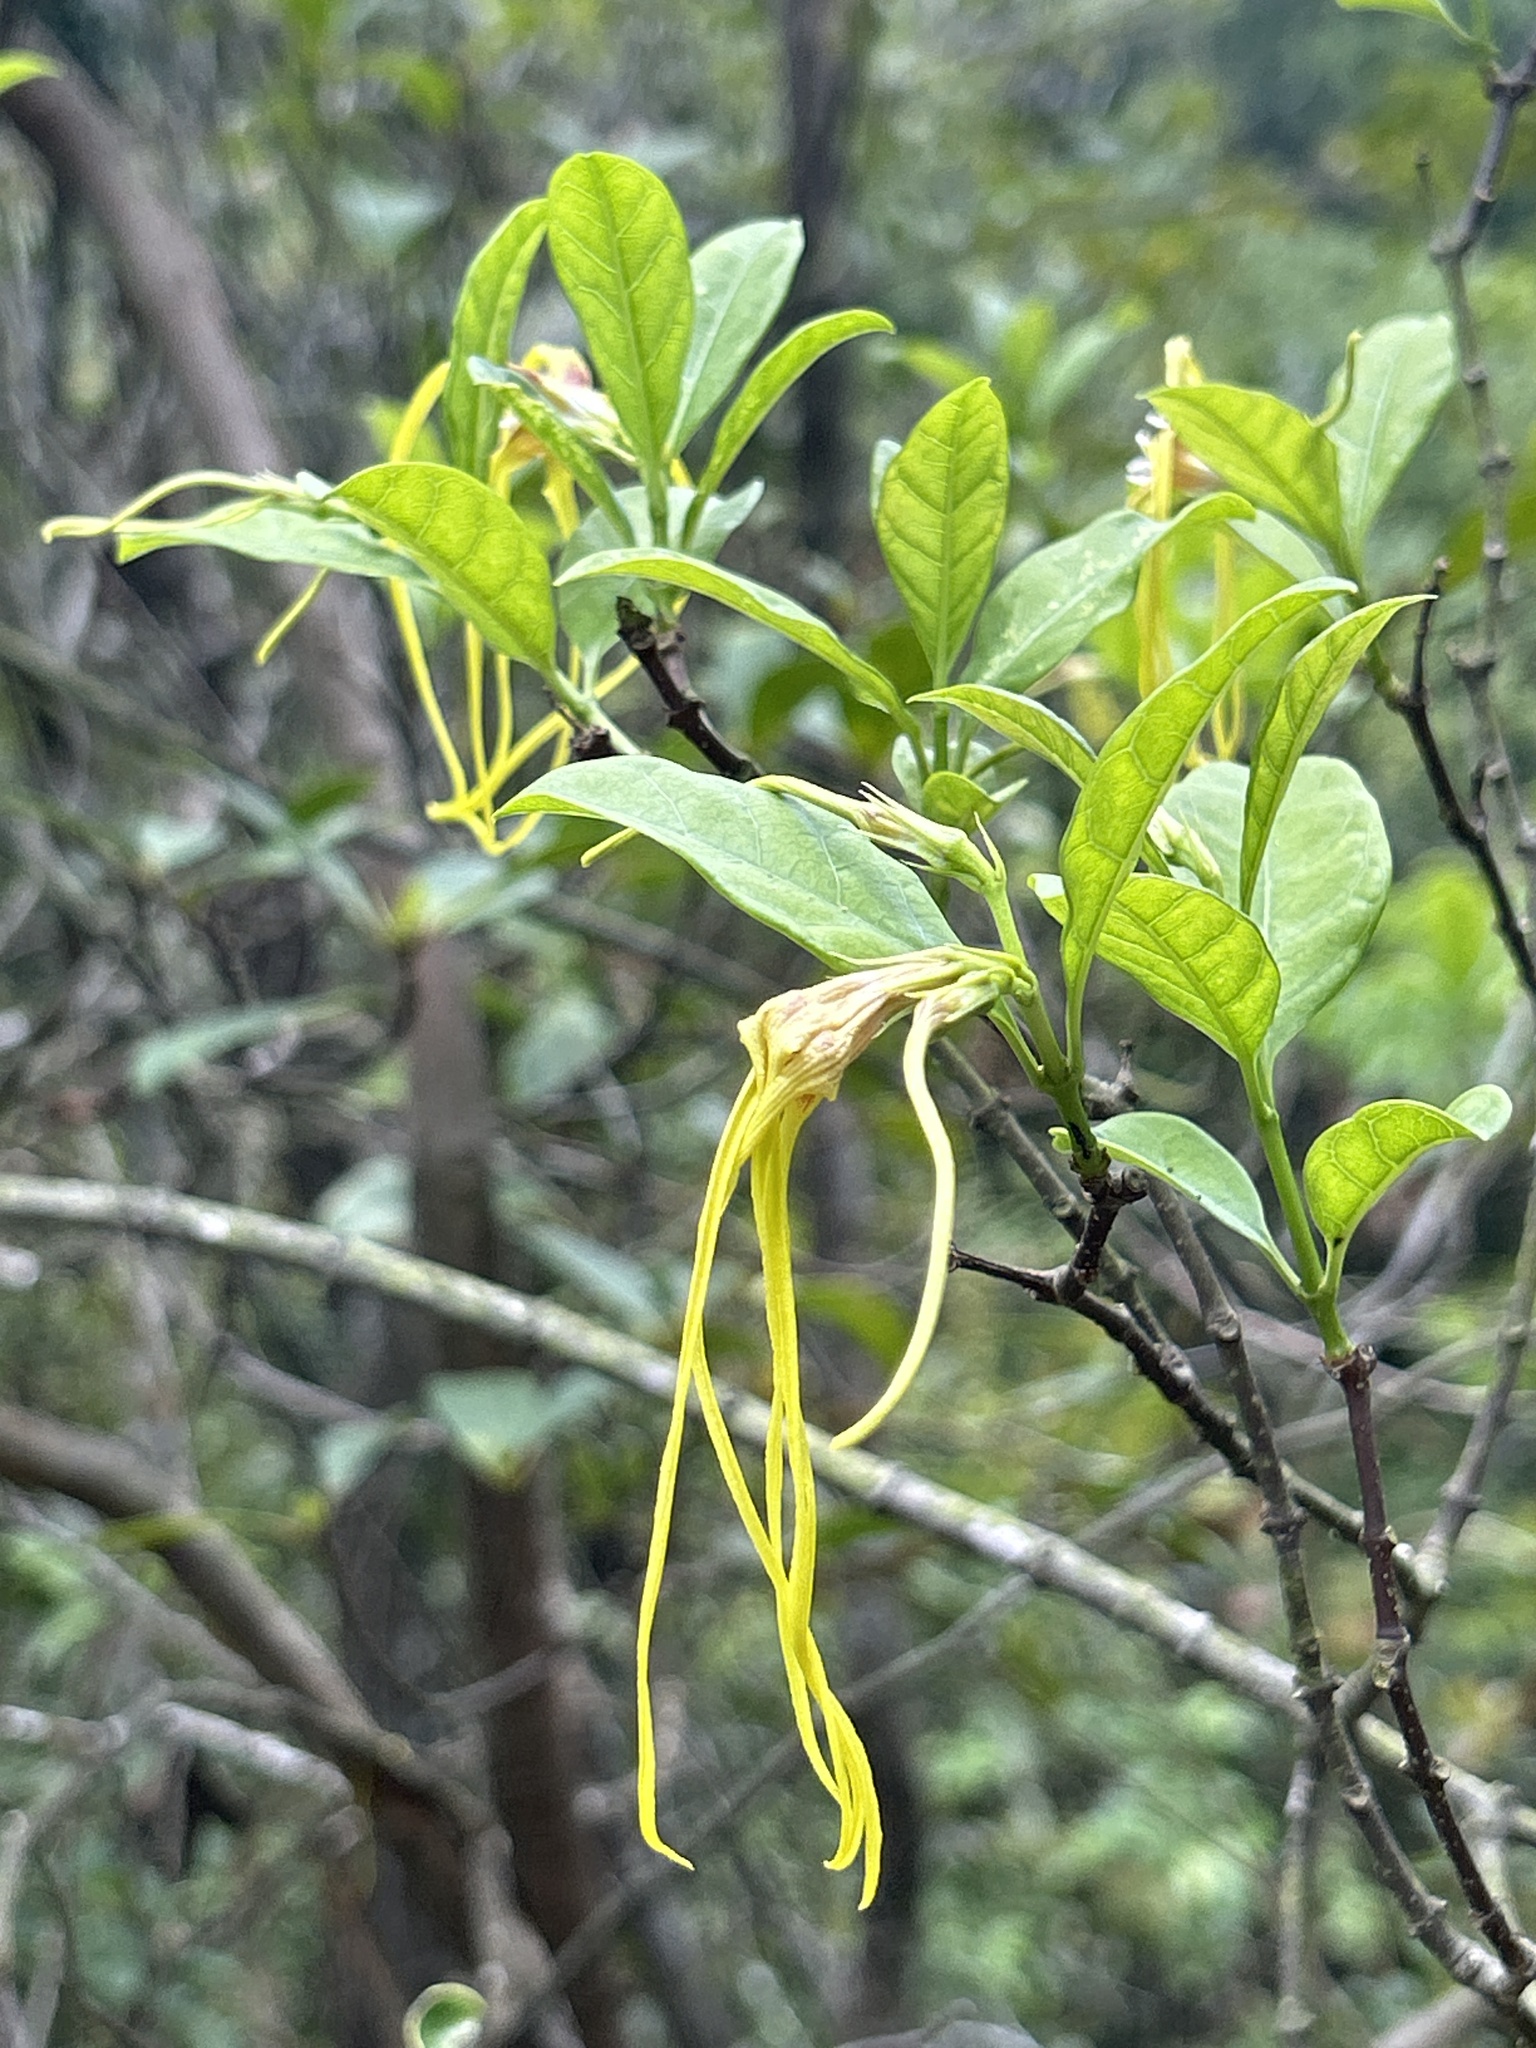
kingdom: Plantae
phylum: Tracheophyta
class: Magnoliopsida
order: Gentianales
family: Apocynaceae
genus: Strophanthus
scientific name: Strophanthus divaricatus
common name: Goat-horns
